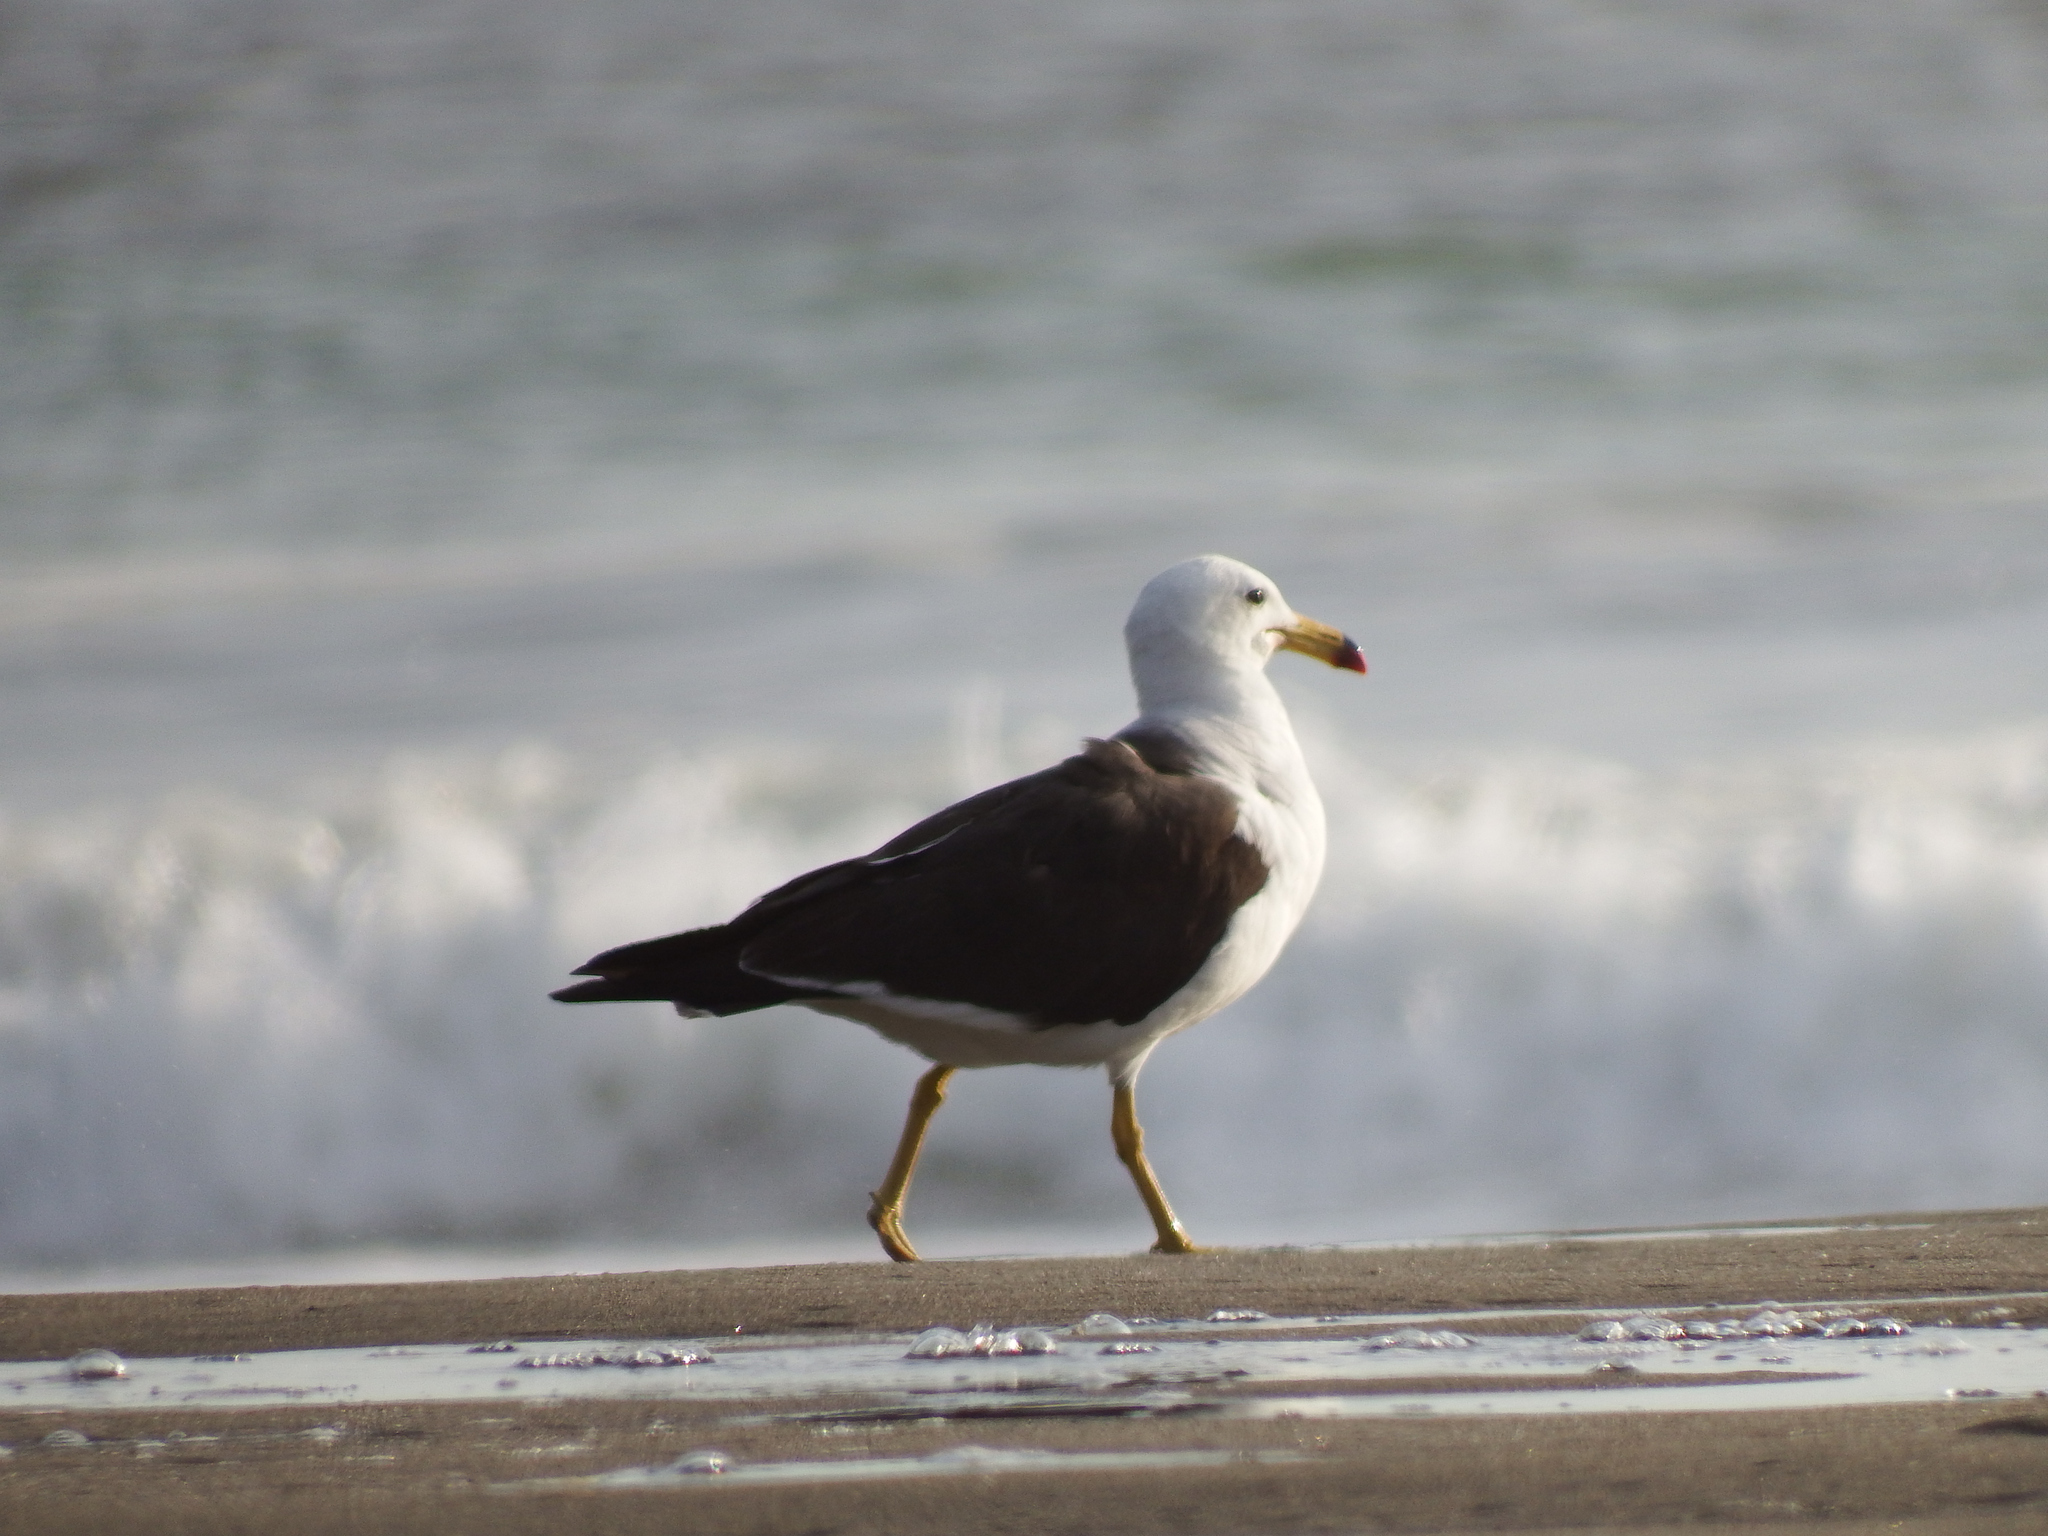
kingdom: Animalia
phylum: Chordata
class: Aves
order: Charadriiformes
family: Laridae
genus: Larus
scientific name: Larus belcheri
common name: Belcher's gull
